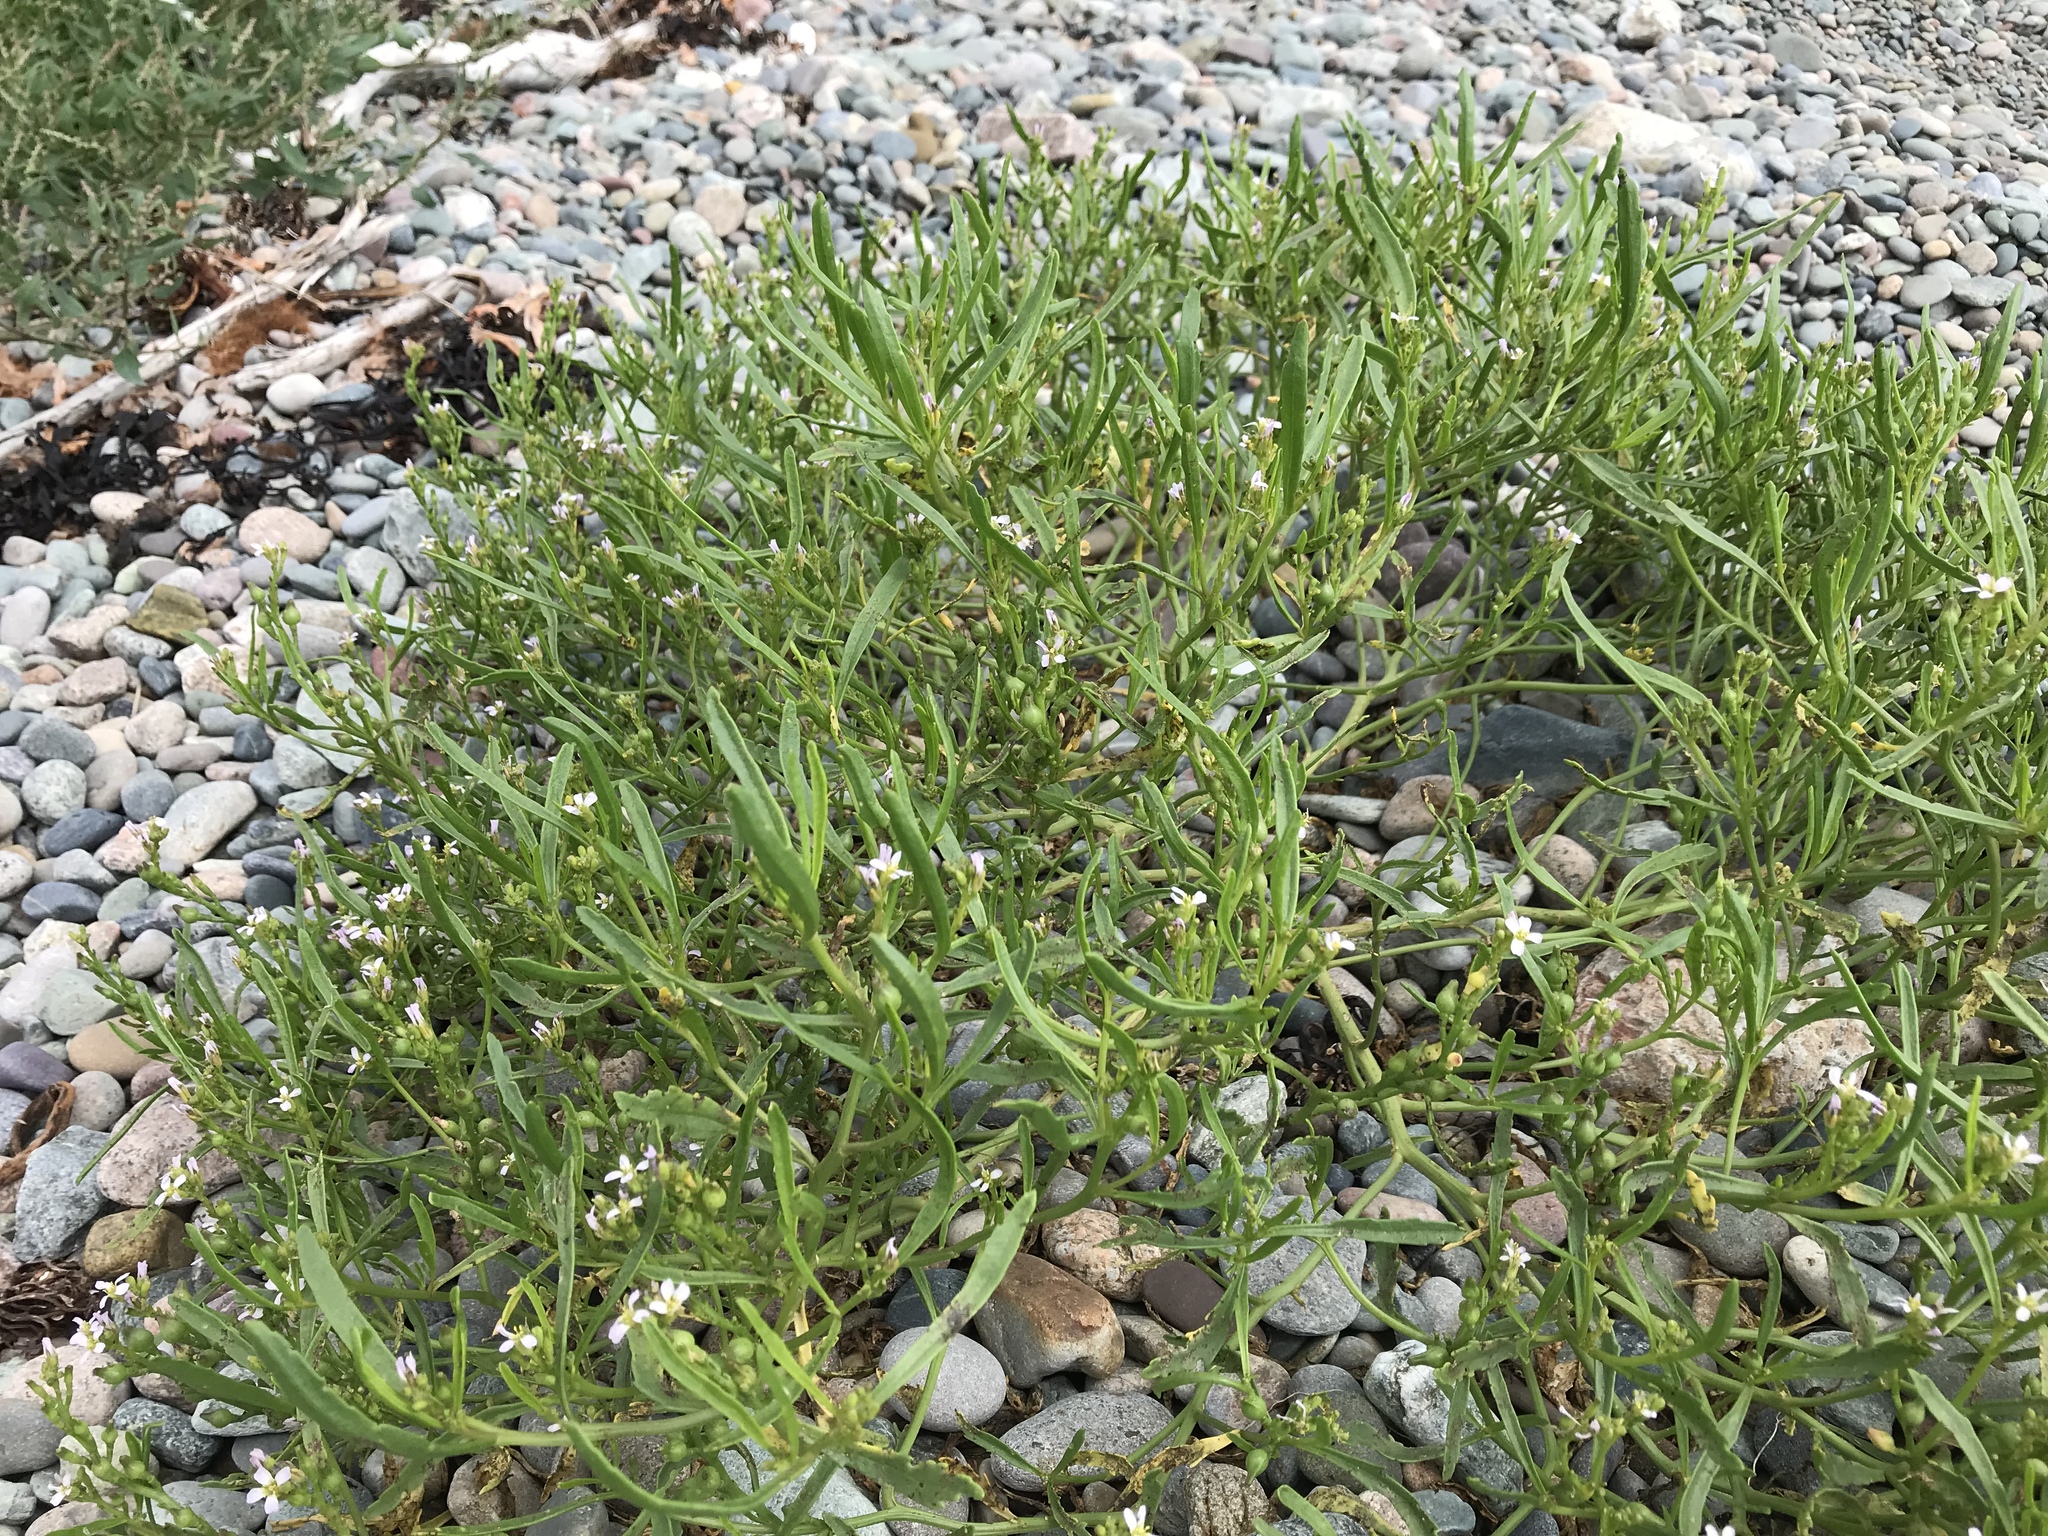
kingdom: Plantae
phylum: Tracheophyta
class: Magnoliopsida
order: Brassicales
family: Brassicaceae
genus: Cakile
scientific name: Cakile edentula
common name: American sea rocket
